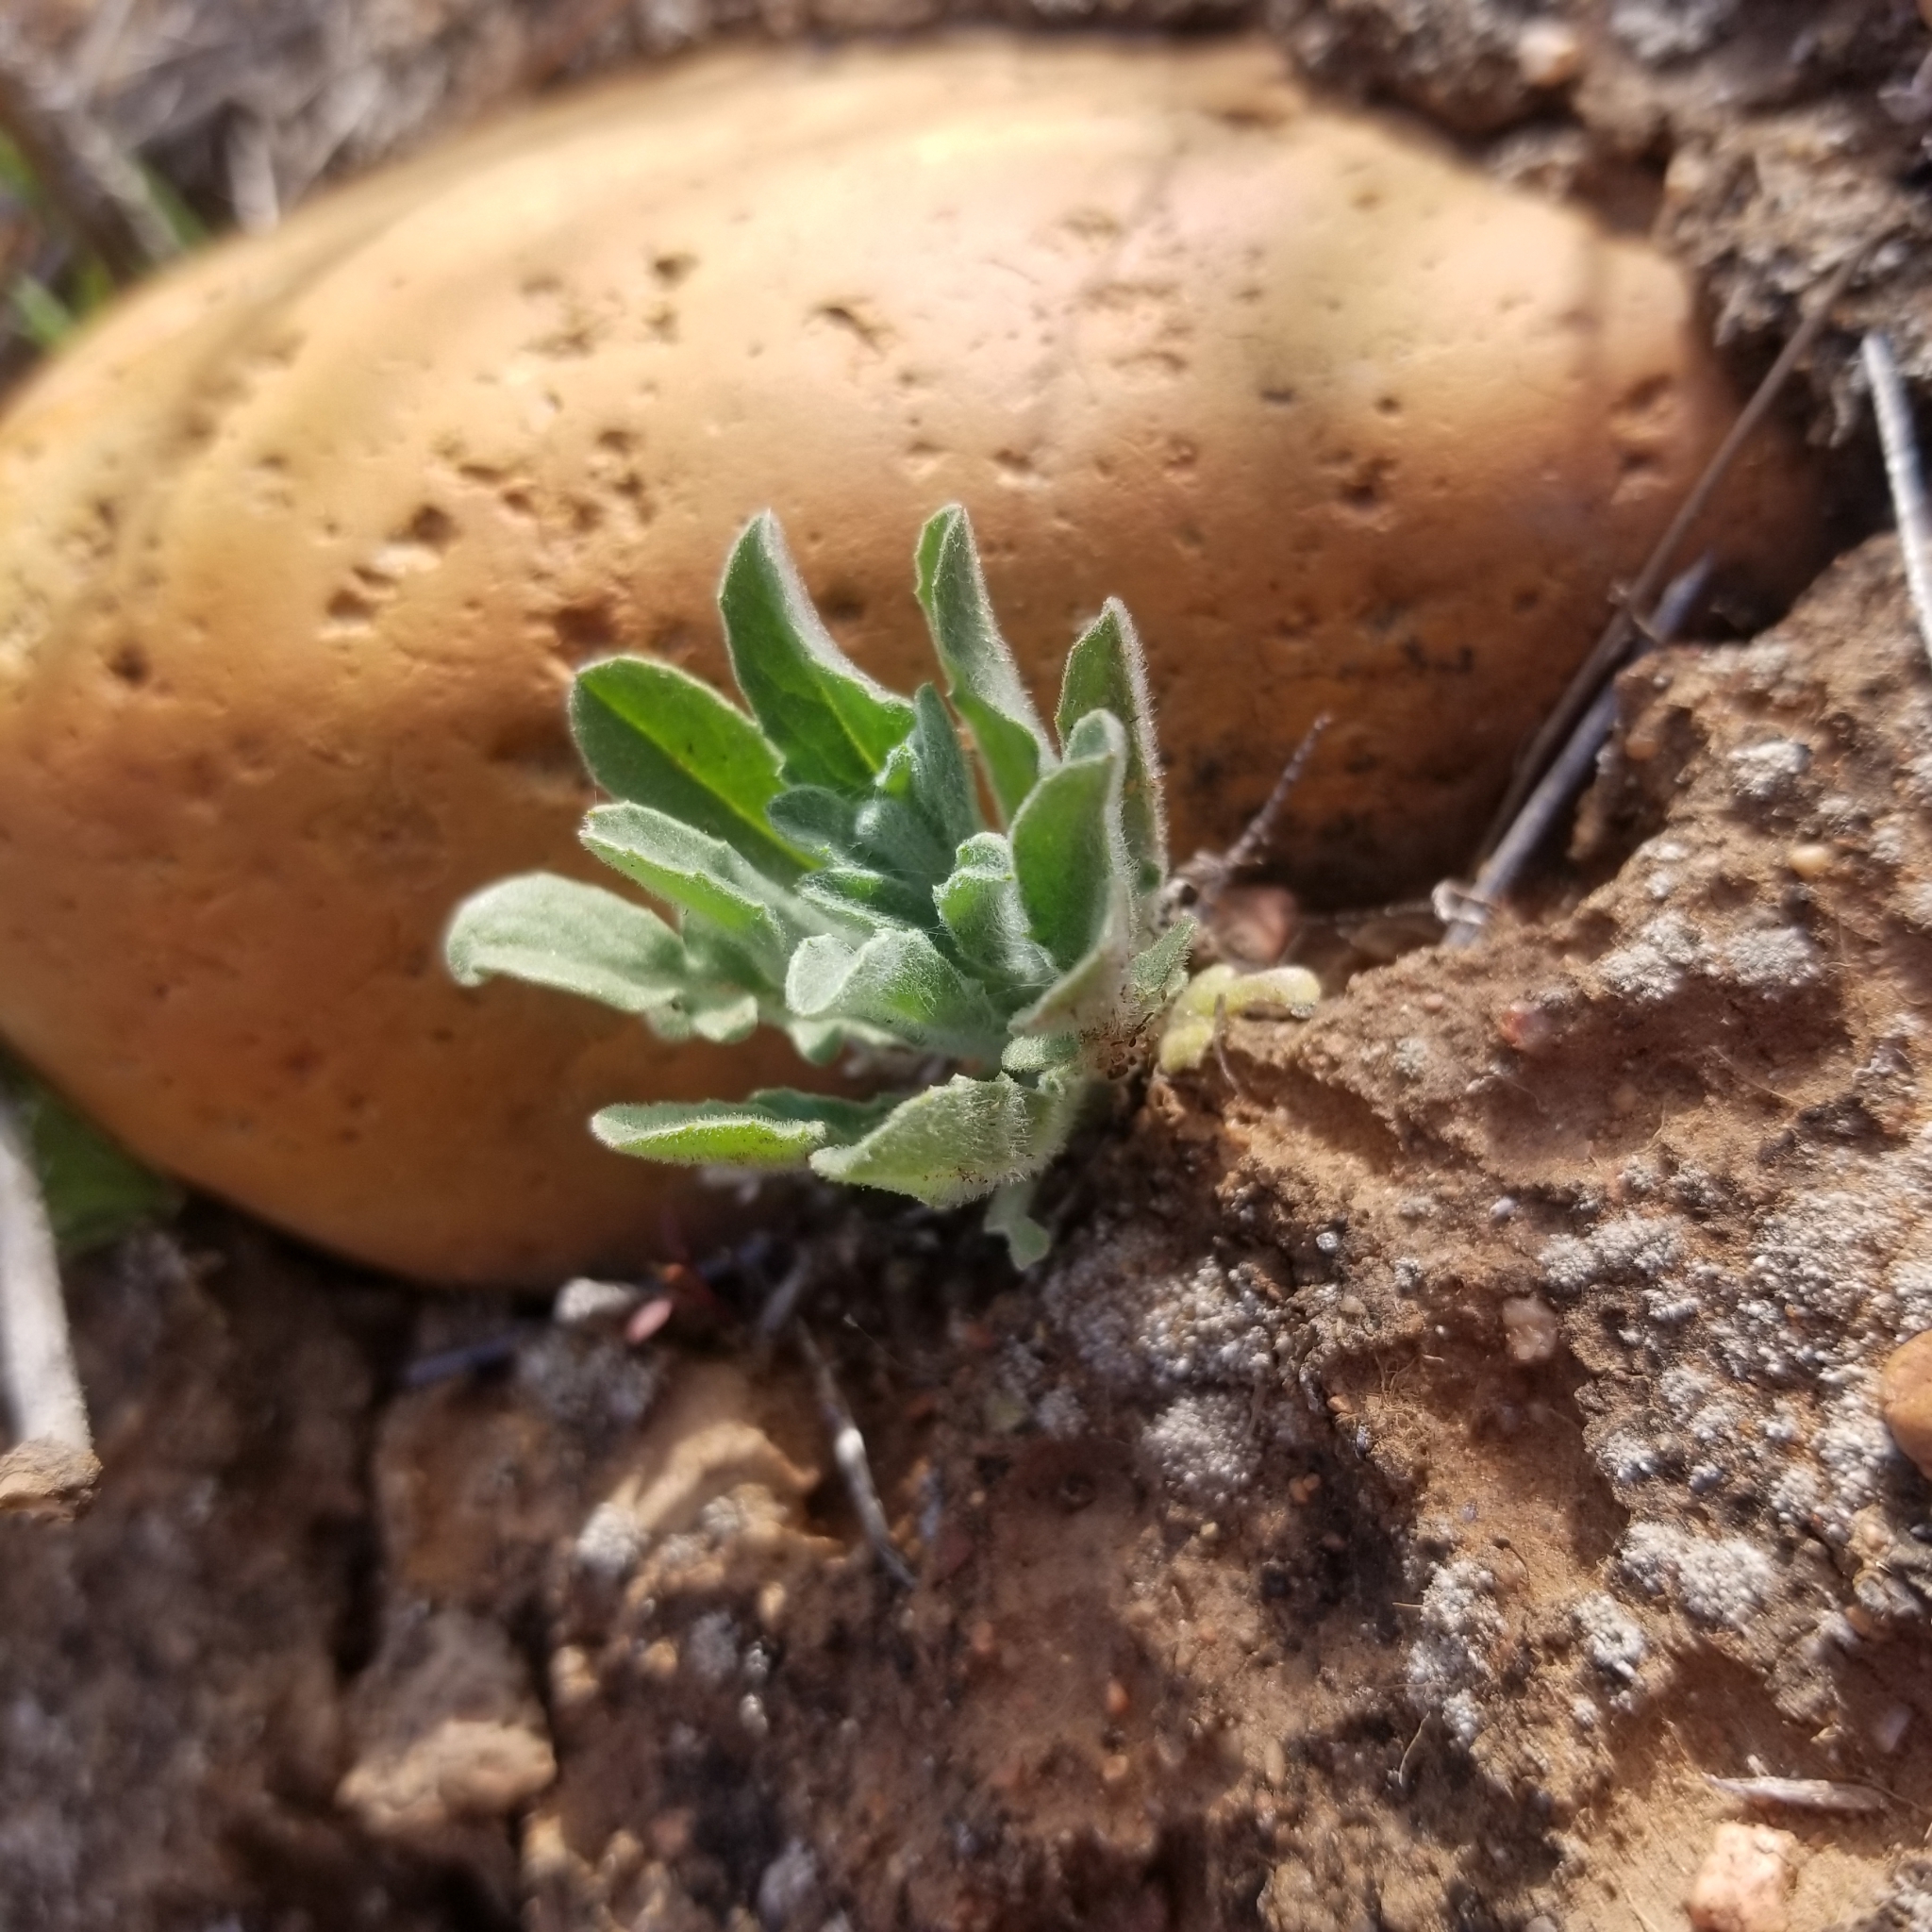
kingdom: Plantae
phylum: Tracheophyta
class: Magnoliopsida
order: Asterales
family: Asteraceae
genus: Centaurea
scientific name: Centaurea melitensis
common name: Maltese star-thistle
